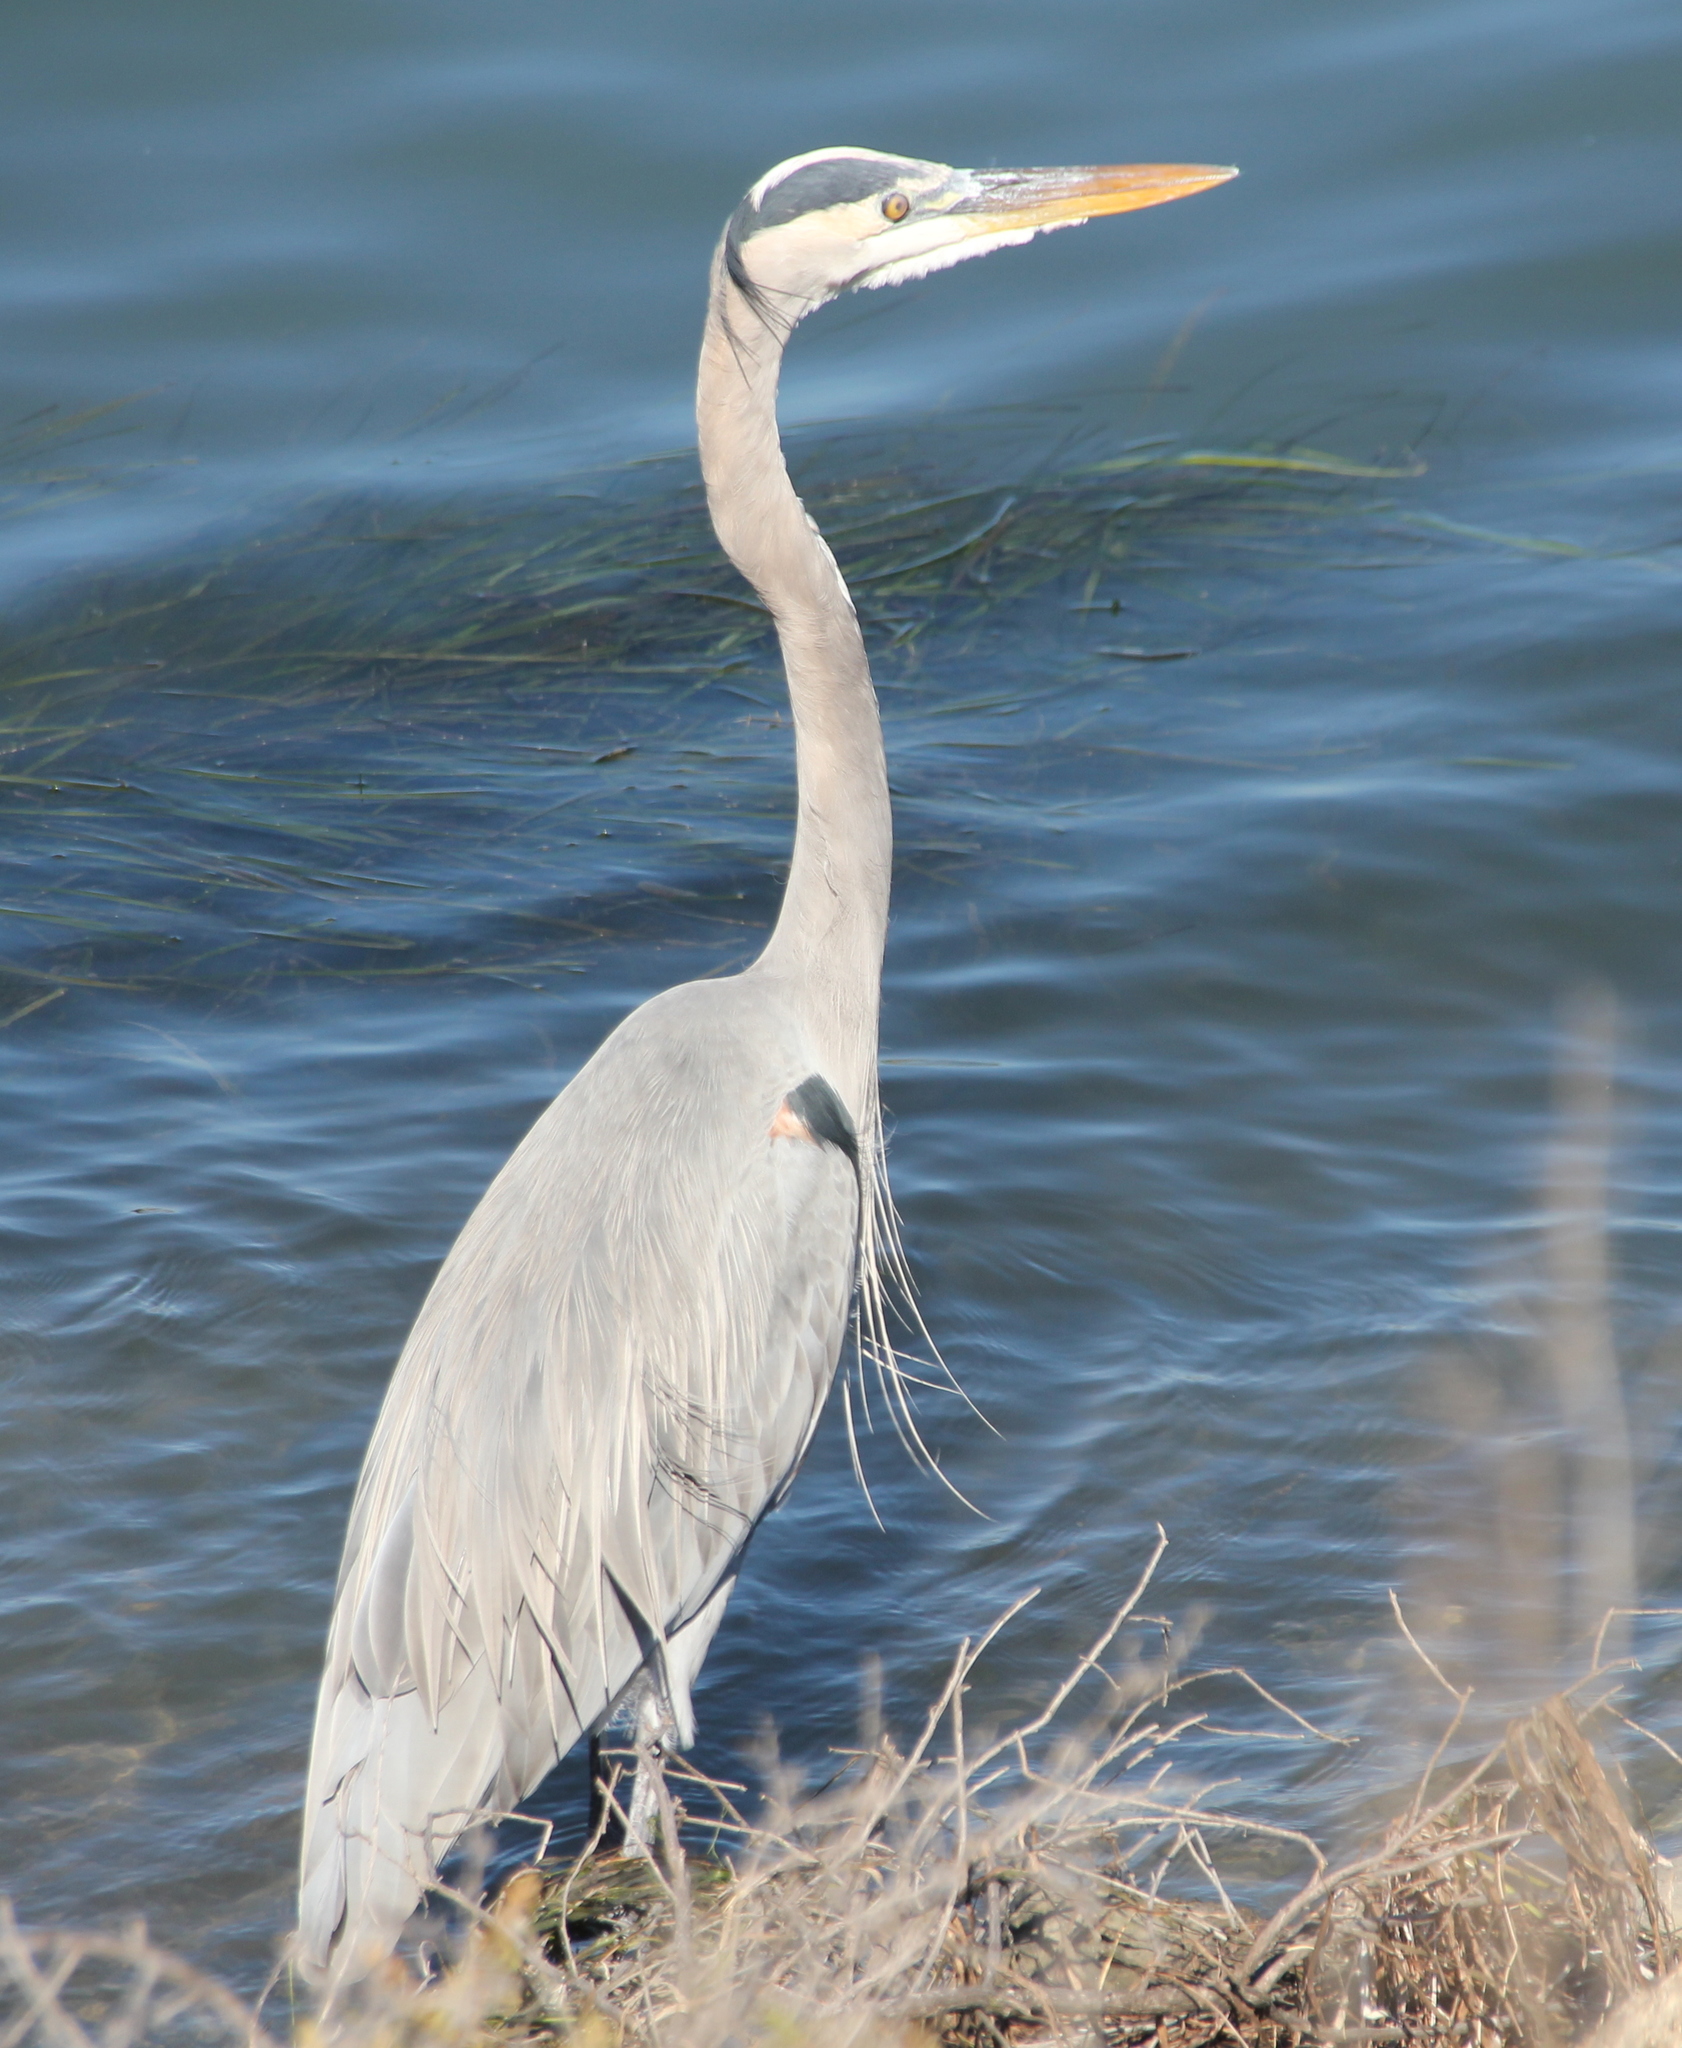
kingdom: Animalia
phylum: Chordata
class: Aves
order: Pelecaniformes
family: Ardeidae
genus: Ardea
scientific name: Ardea herodias
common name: Great blue heron
